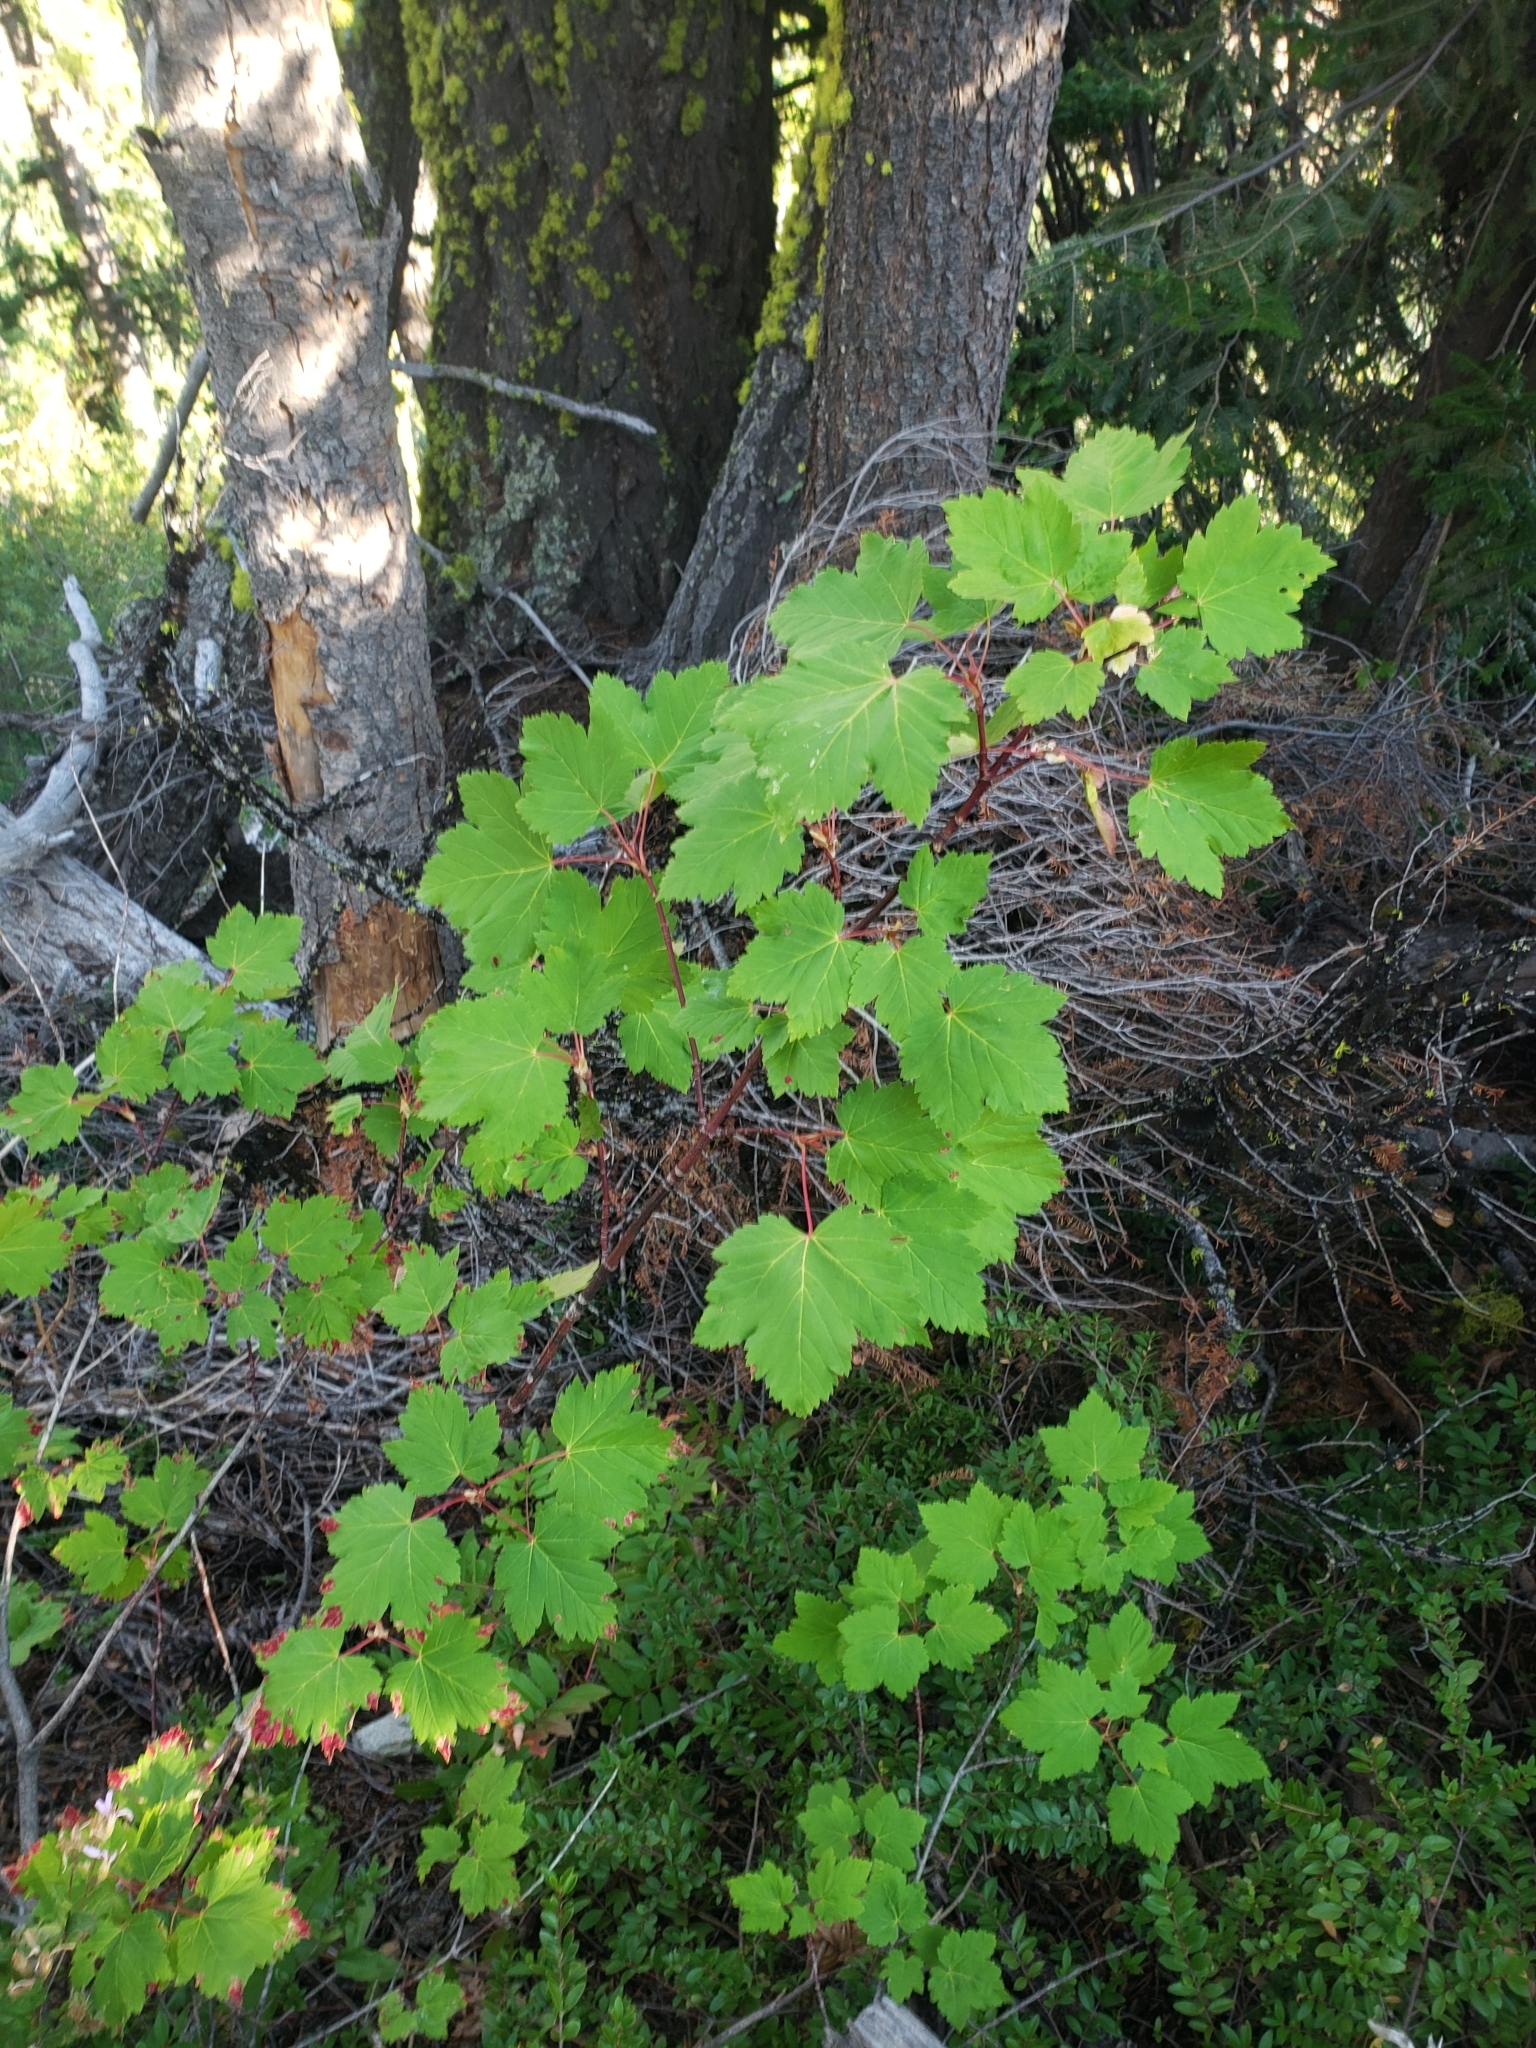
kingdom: Plantae
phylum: Tracheophyta
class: Magnoliopsida
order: Sapindales
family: Sapindaceae
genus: Acer
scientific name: Acer glabrum
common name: Rocky mountain maple
